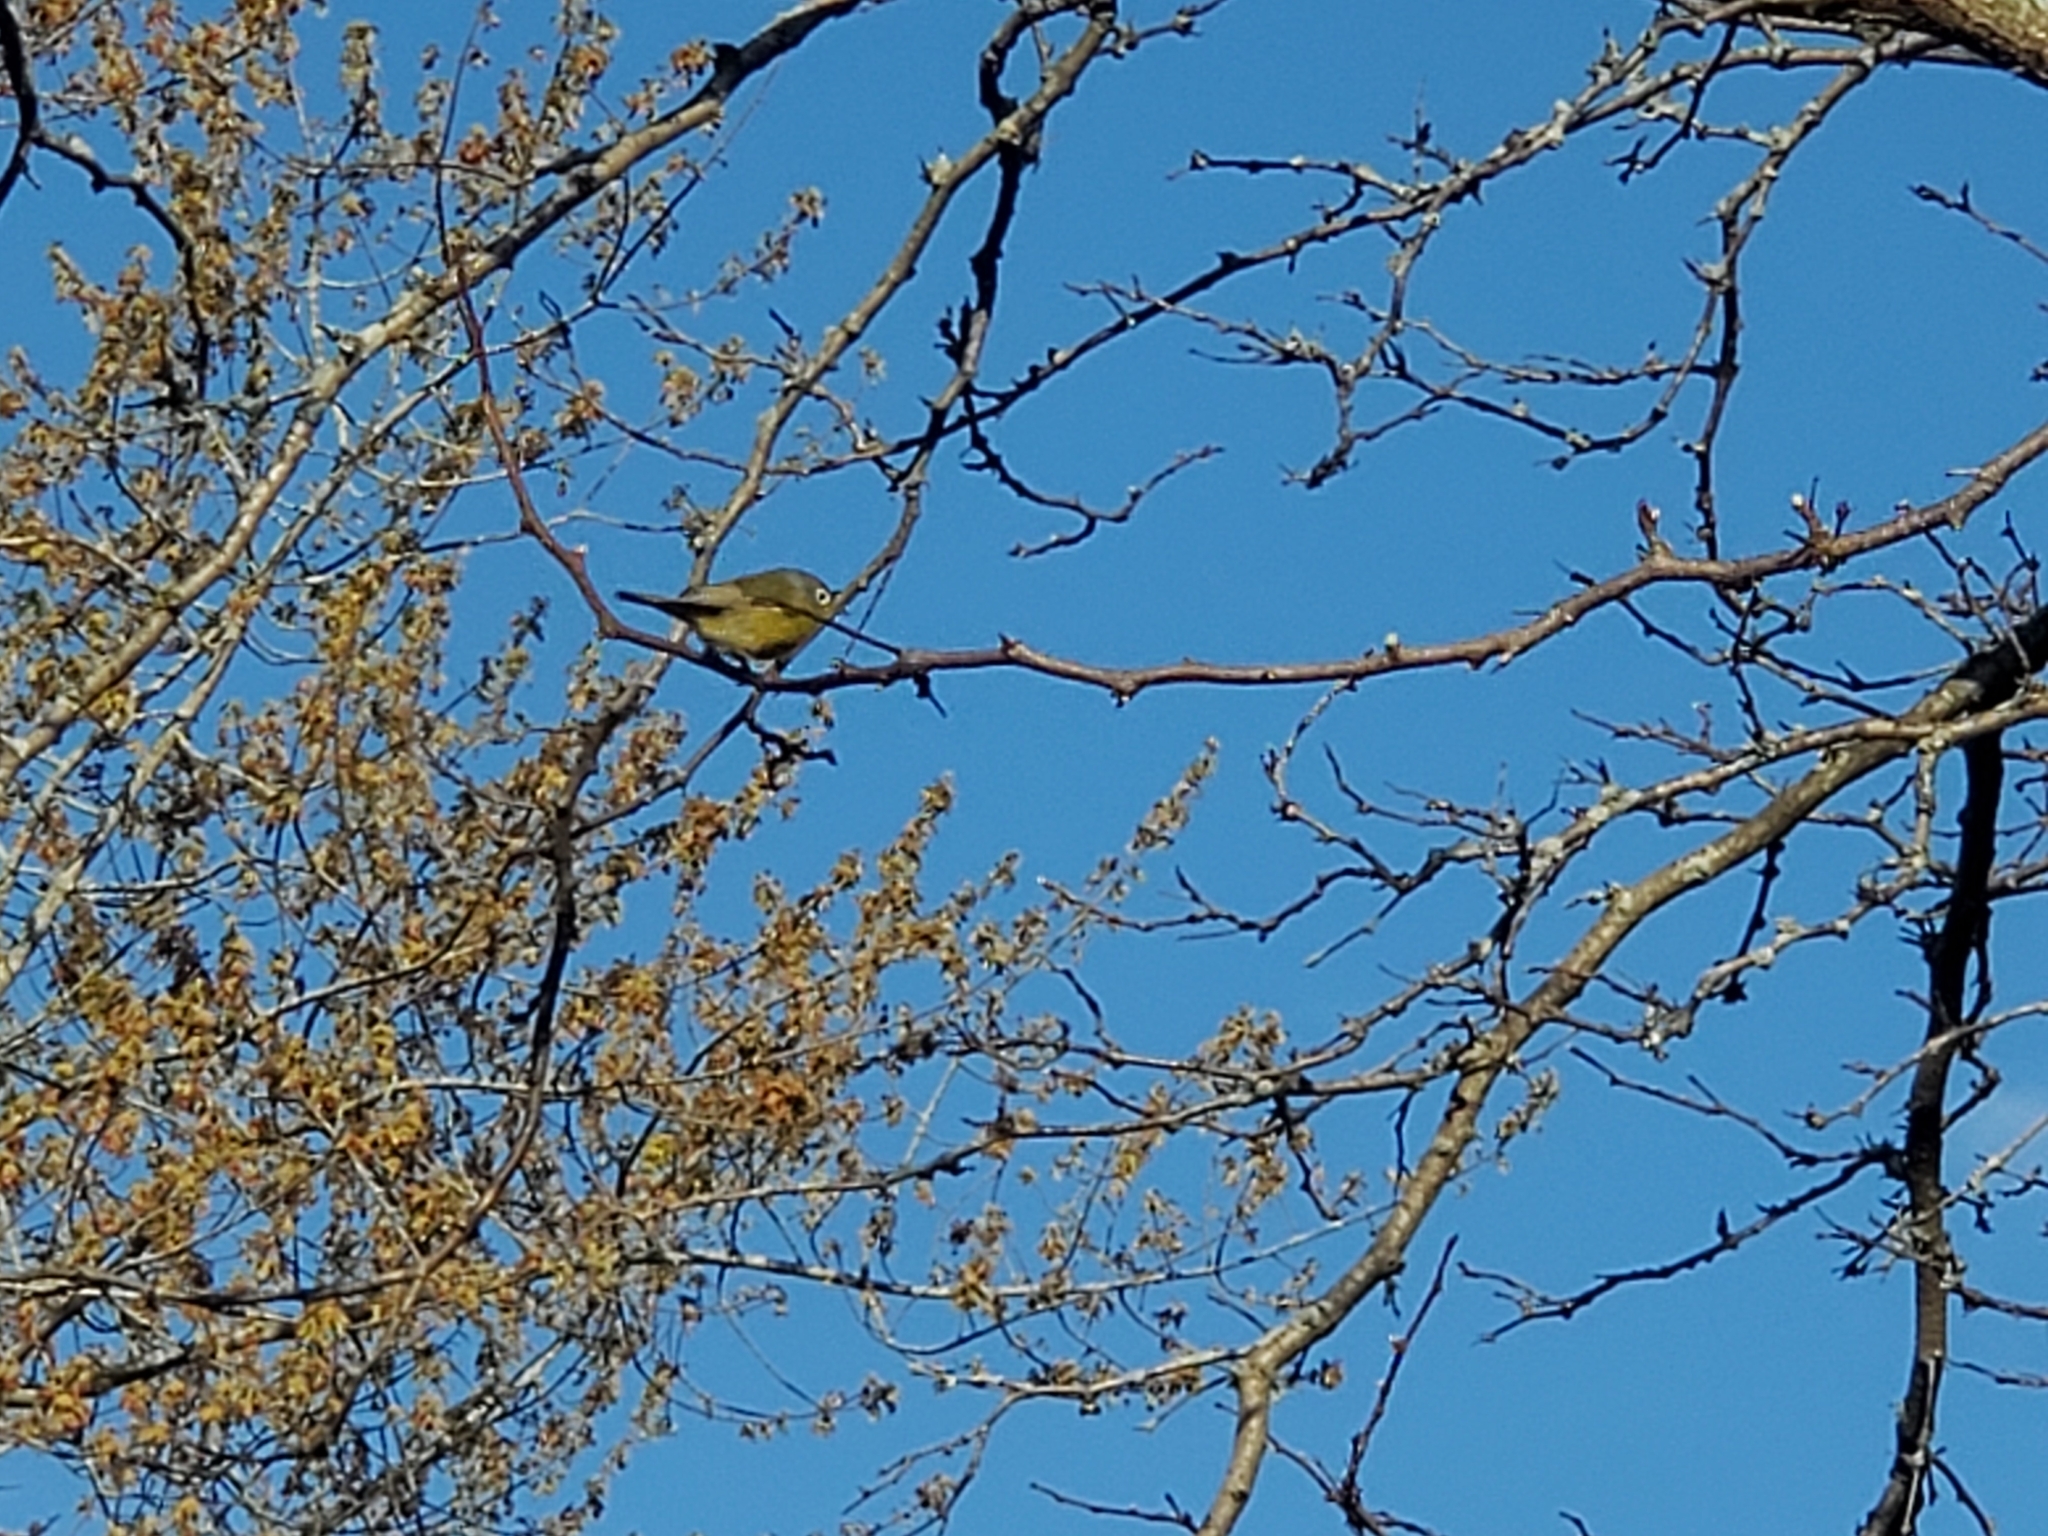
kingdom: Animalia
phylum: Chordata
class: Aves
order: Passeriformes
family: Parulidae
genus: Leiothlypis
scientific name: Leiothlypis ruficapilla
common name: Nashville warbler
